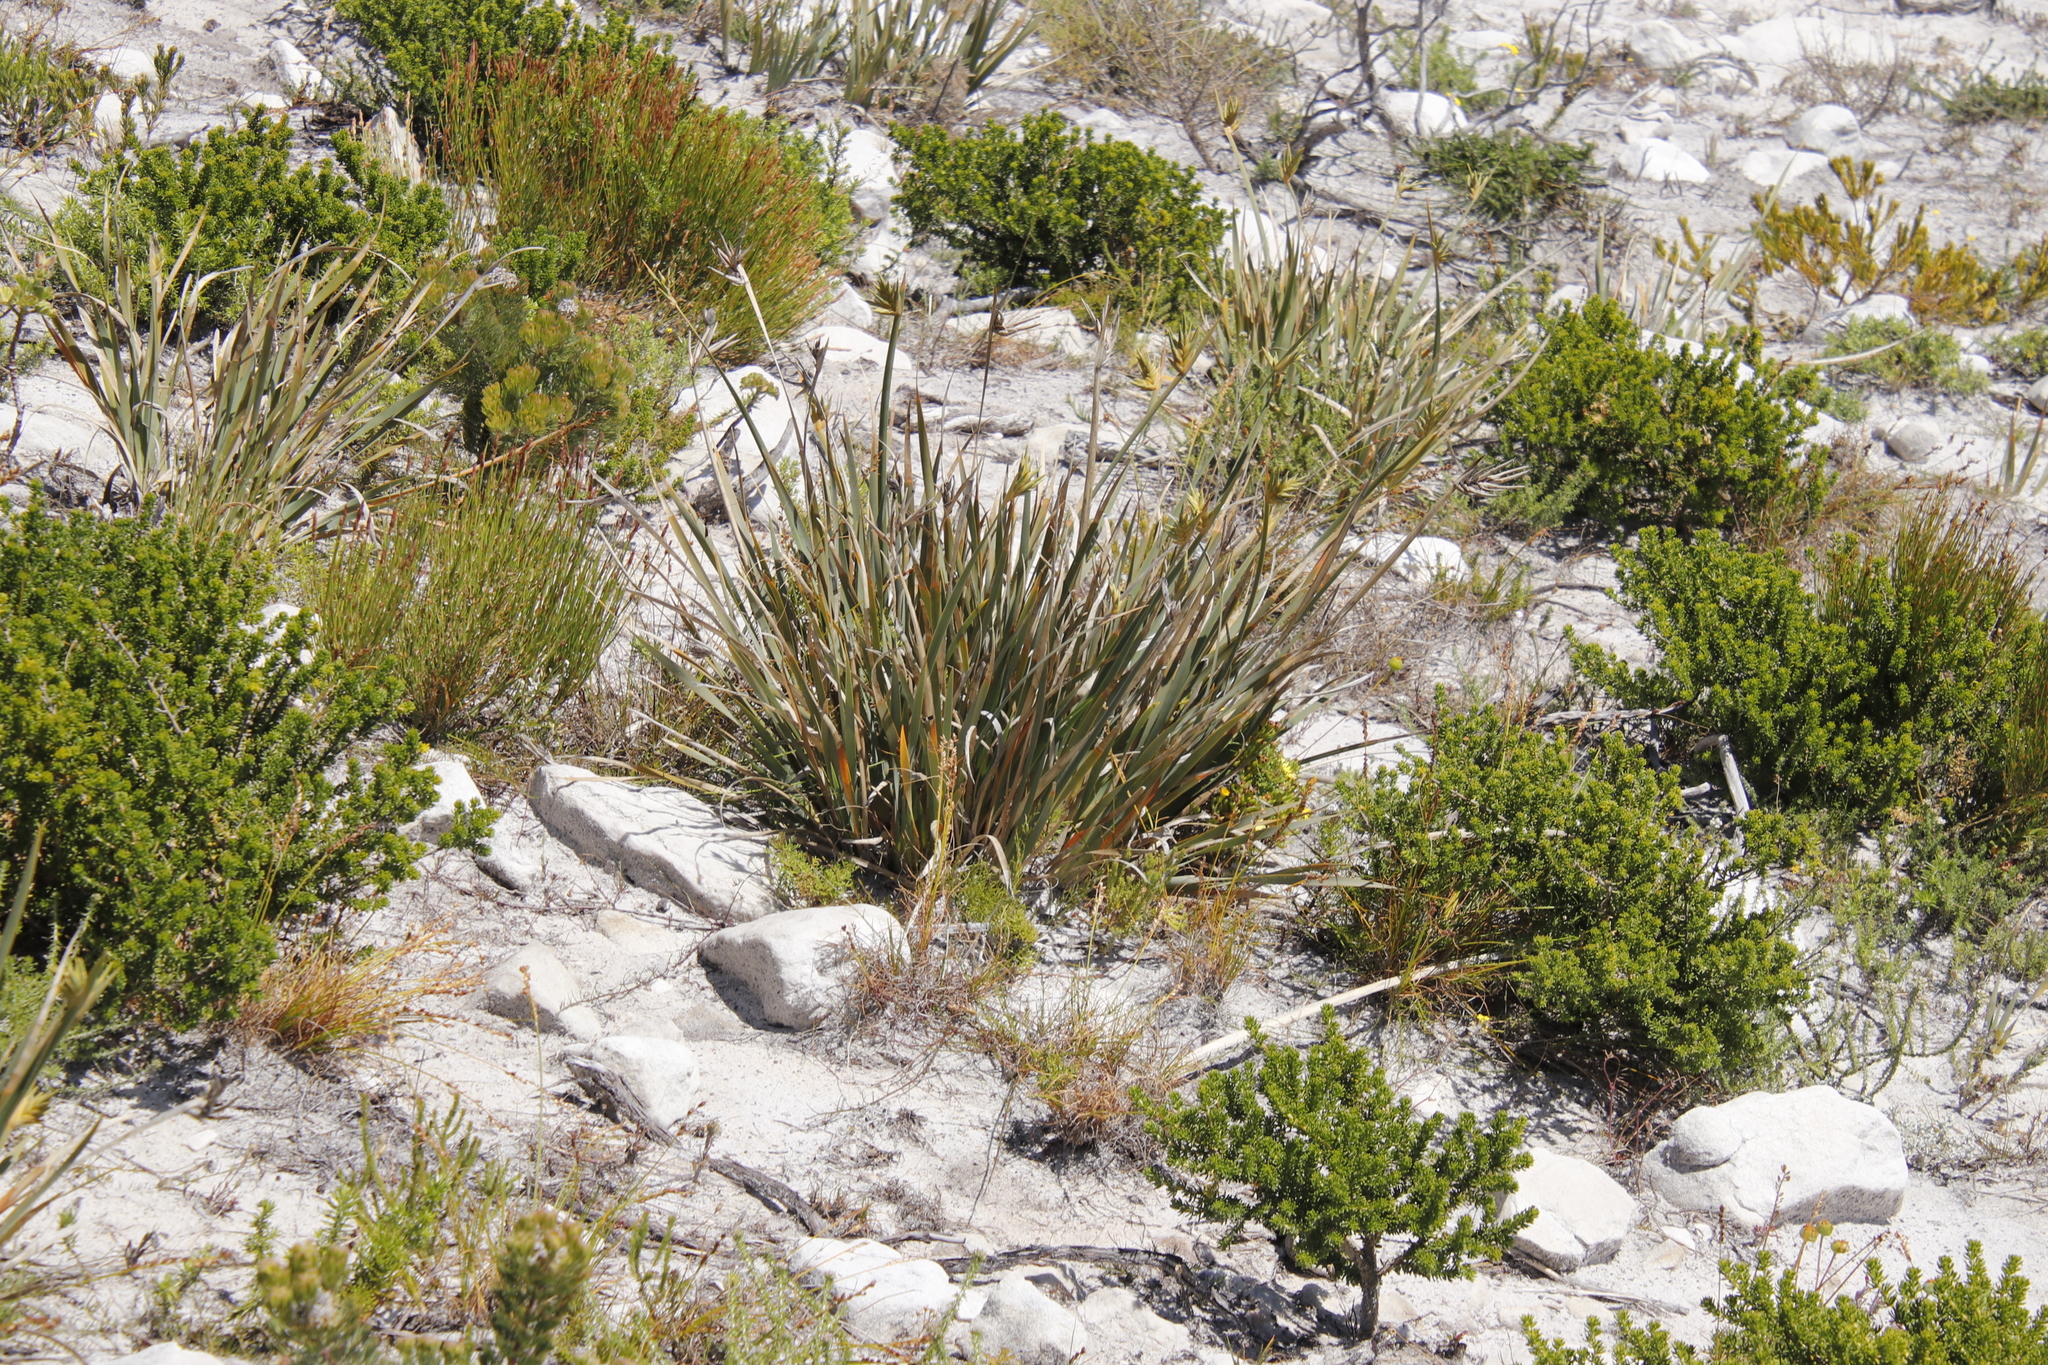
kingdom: Plantae
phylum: Tracheophyta
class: Liliopsida
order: Asparagales
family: Iridaceae
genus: Bobartia
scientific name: Bobartia gladiata
